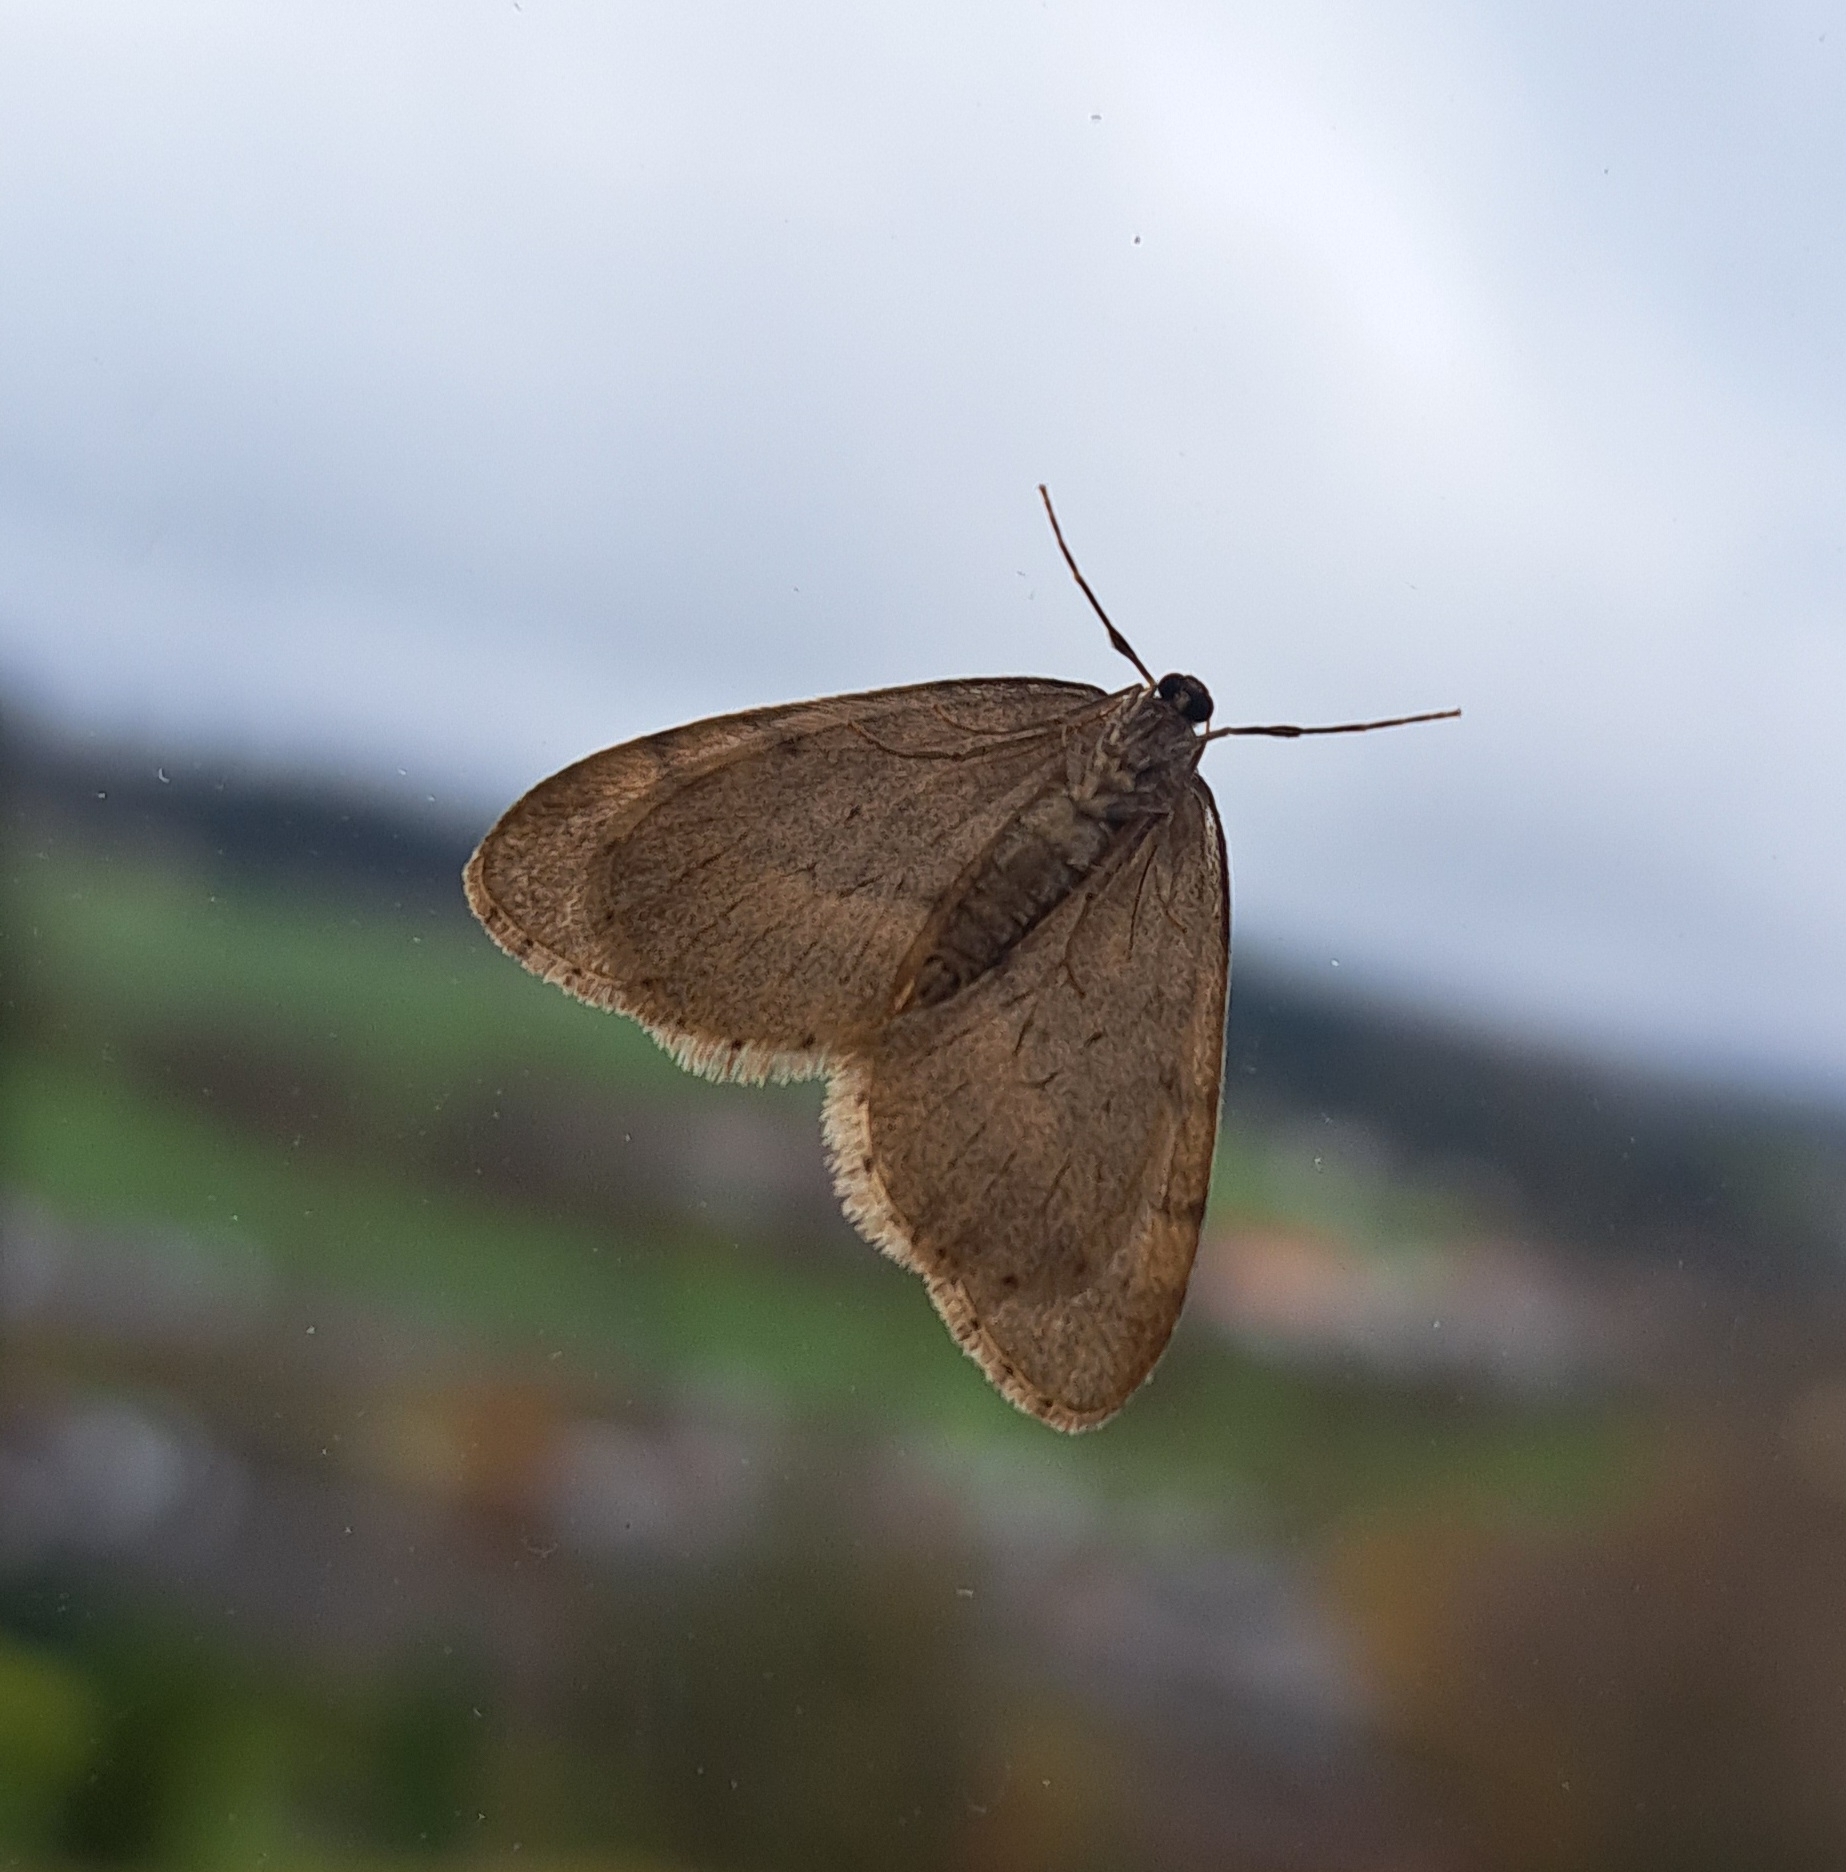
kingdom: Animalia
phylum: Arthropoda
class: Insecta
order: Lepidoptera
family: Geometridae
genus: Operophtera
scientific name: Operophtera brumata
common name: Winter moth
